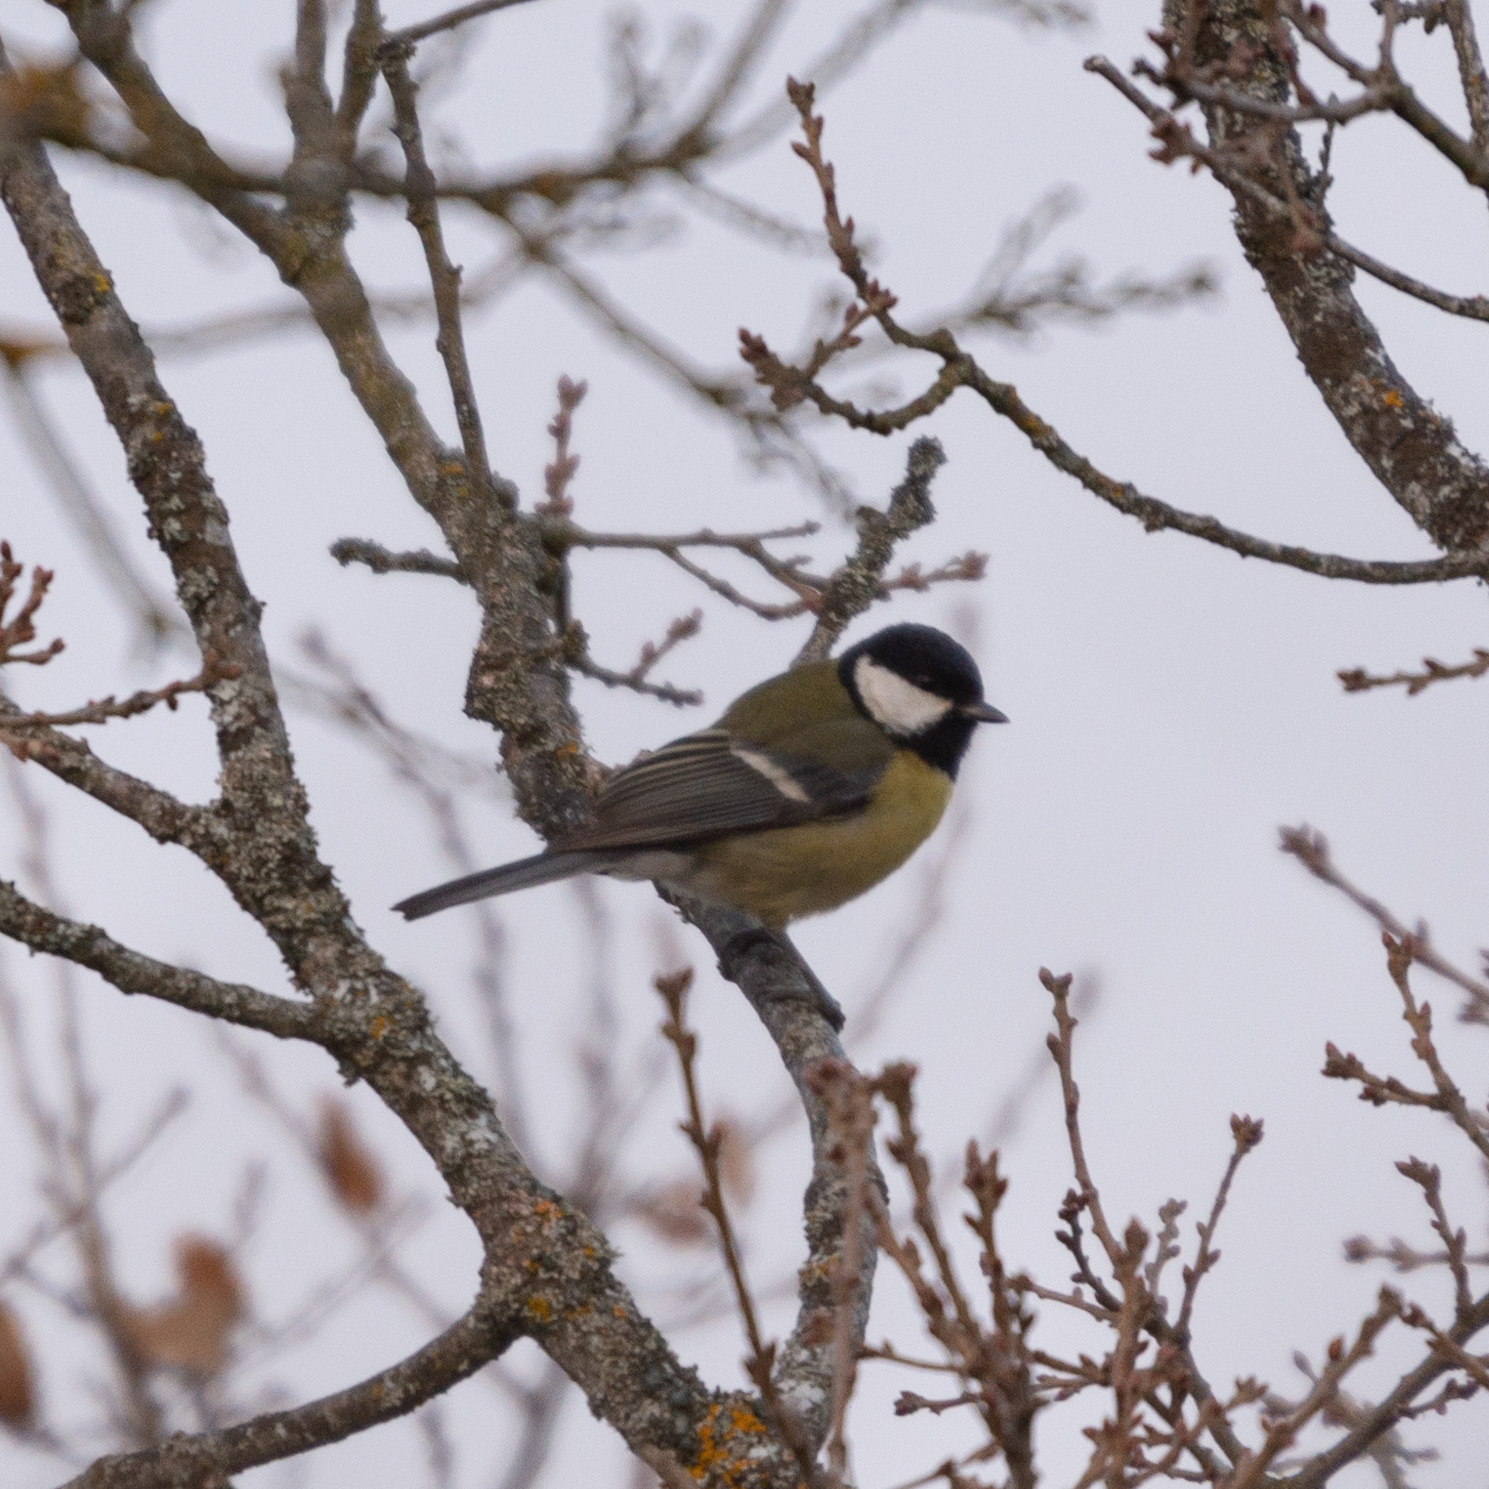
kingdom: Animalia
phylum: Chordata
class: Aves
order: Passeriformes
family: Paridae
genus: Parus
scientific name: Parus major
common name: Great tit
